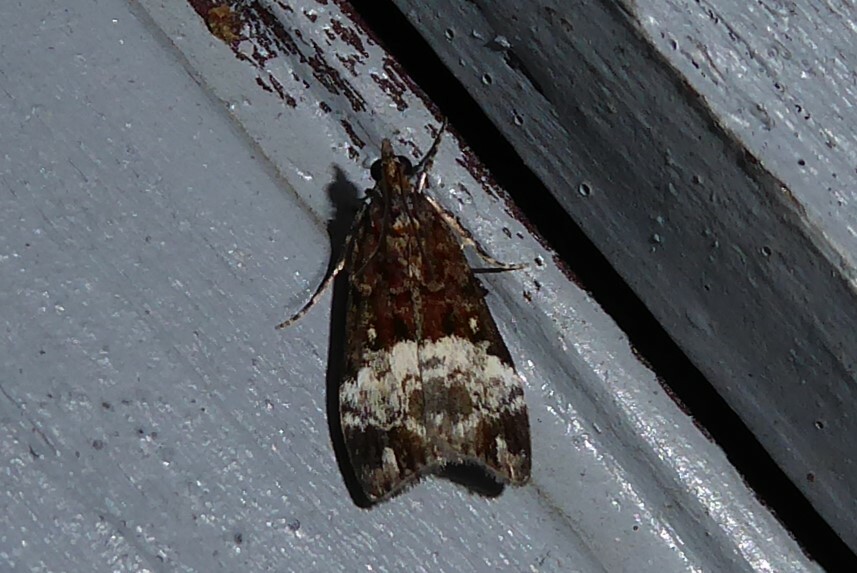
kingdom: Animalia
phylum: Arthropoda
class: Insecta
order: Lepidoptera
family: Crambidae
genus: Scoparia
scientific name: Scoparia minusculalis
